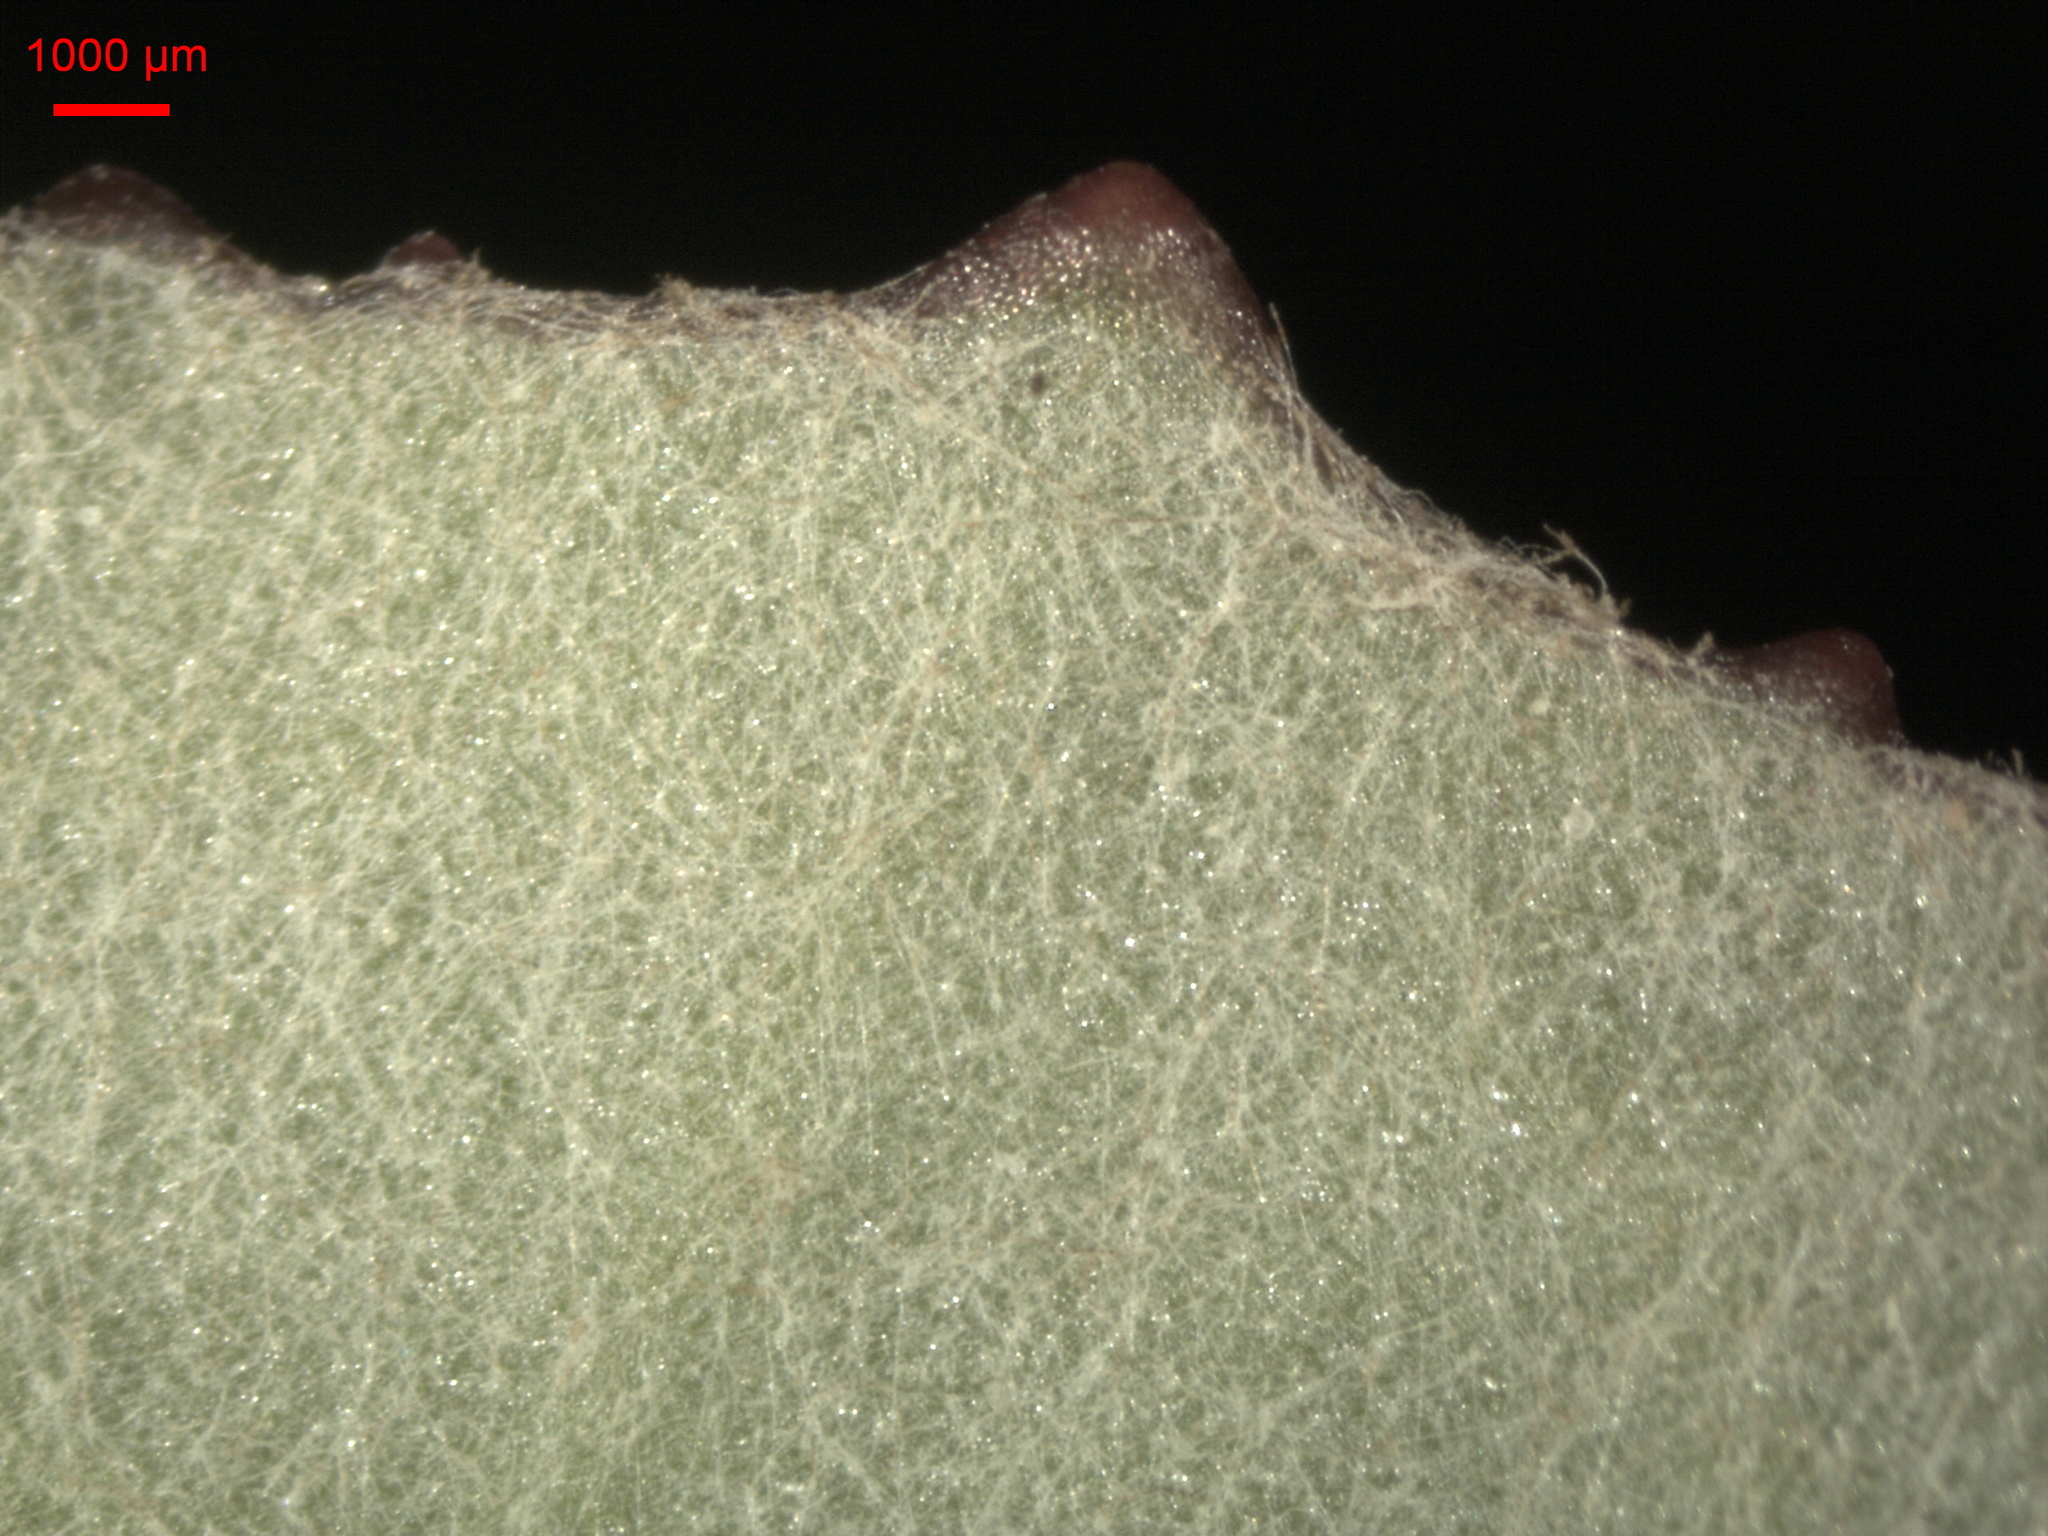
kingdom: Plantae
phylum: Tracheophyta
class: Magnoliopsida
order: Asterales
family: Asteraceae
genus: Tussilago
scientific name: Tussilago farfara
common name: Coltsfoot
